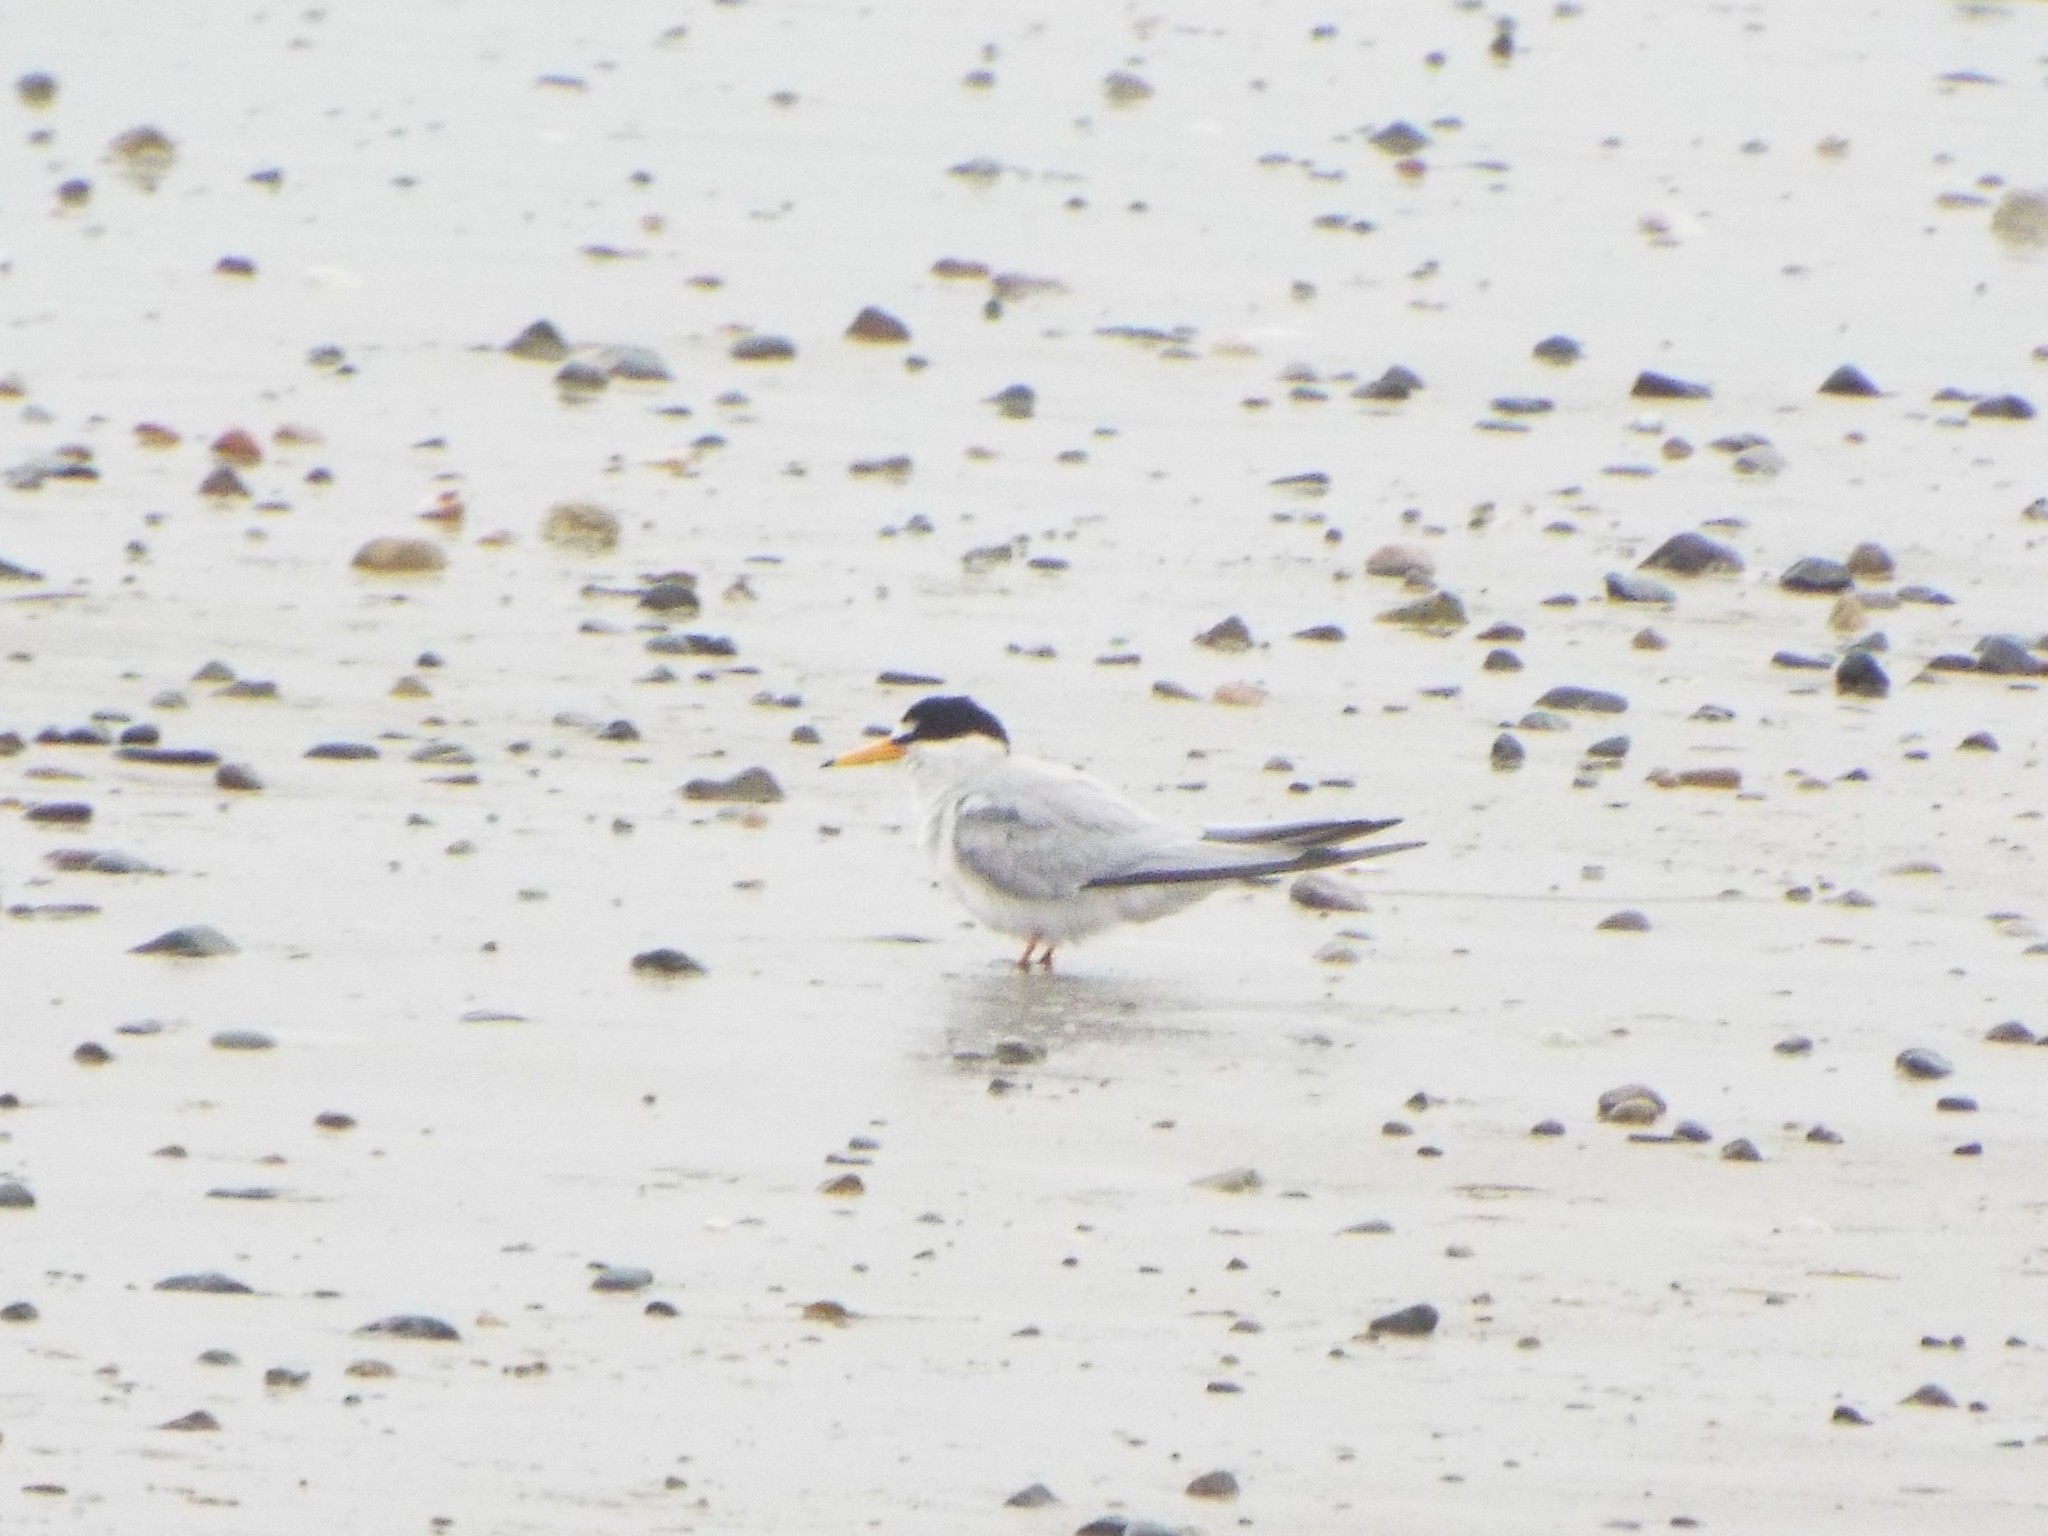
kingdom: Animalia
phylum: Chordata
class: Aves
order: Charadriiformes
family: Laridae
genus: Sternula
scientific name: Sternula antillarum
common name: Least tern
